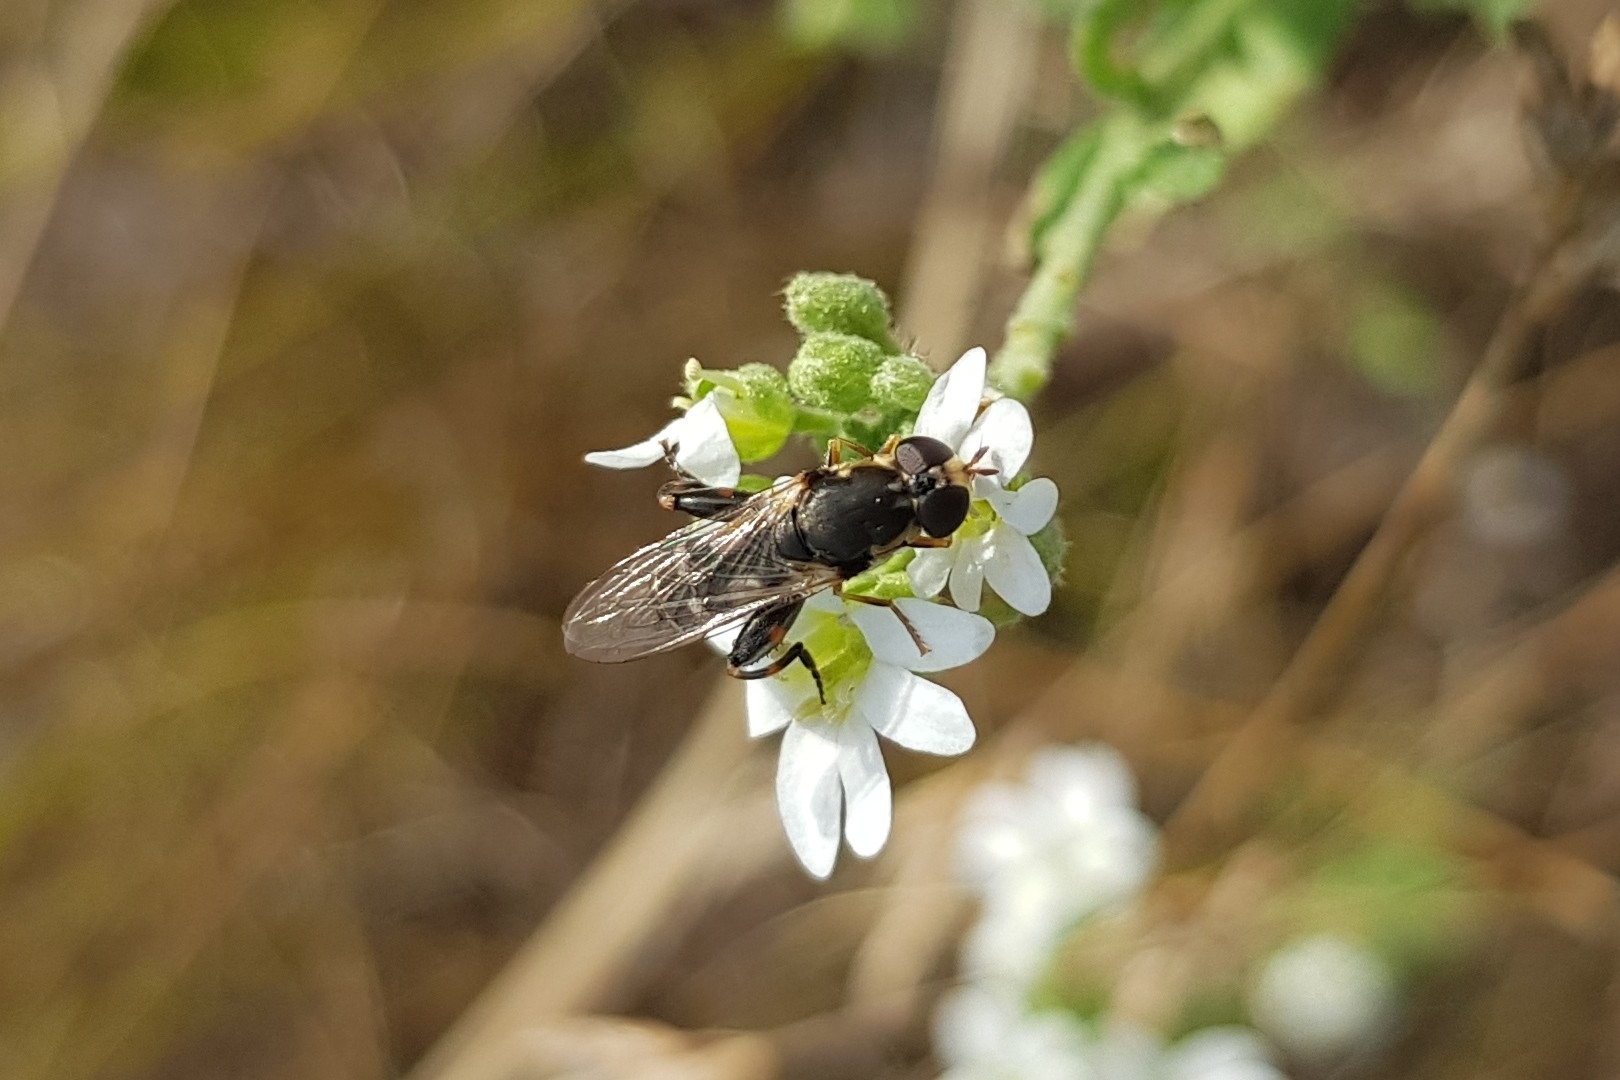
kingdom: Animalia
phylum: Arthropoda
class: Insecta
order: Diptera
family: Syrphidae
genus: Syritta
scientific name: Syritta pipiens
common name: Hover fly
